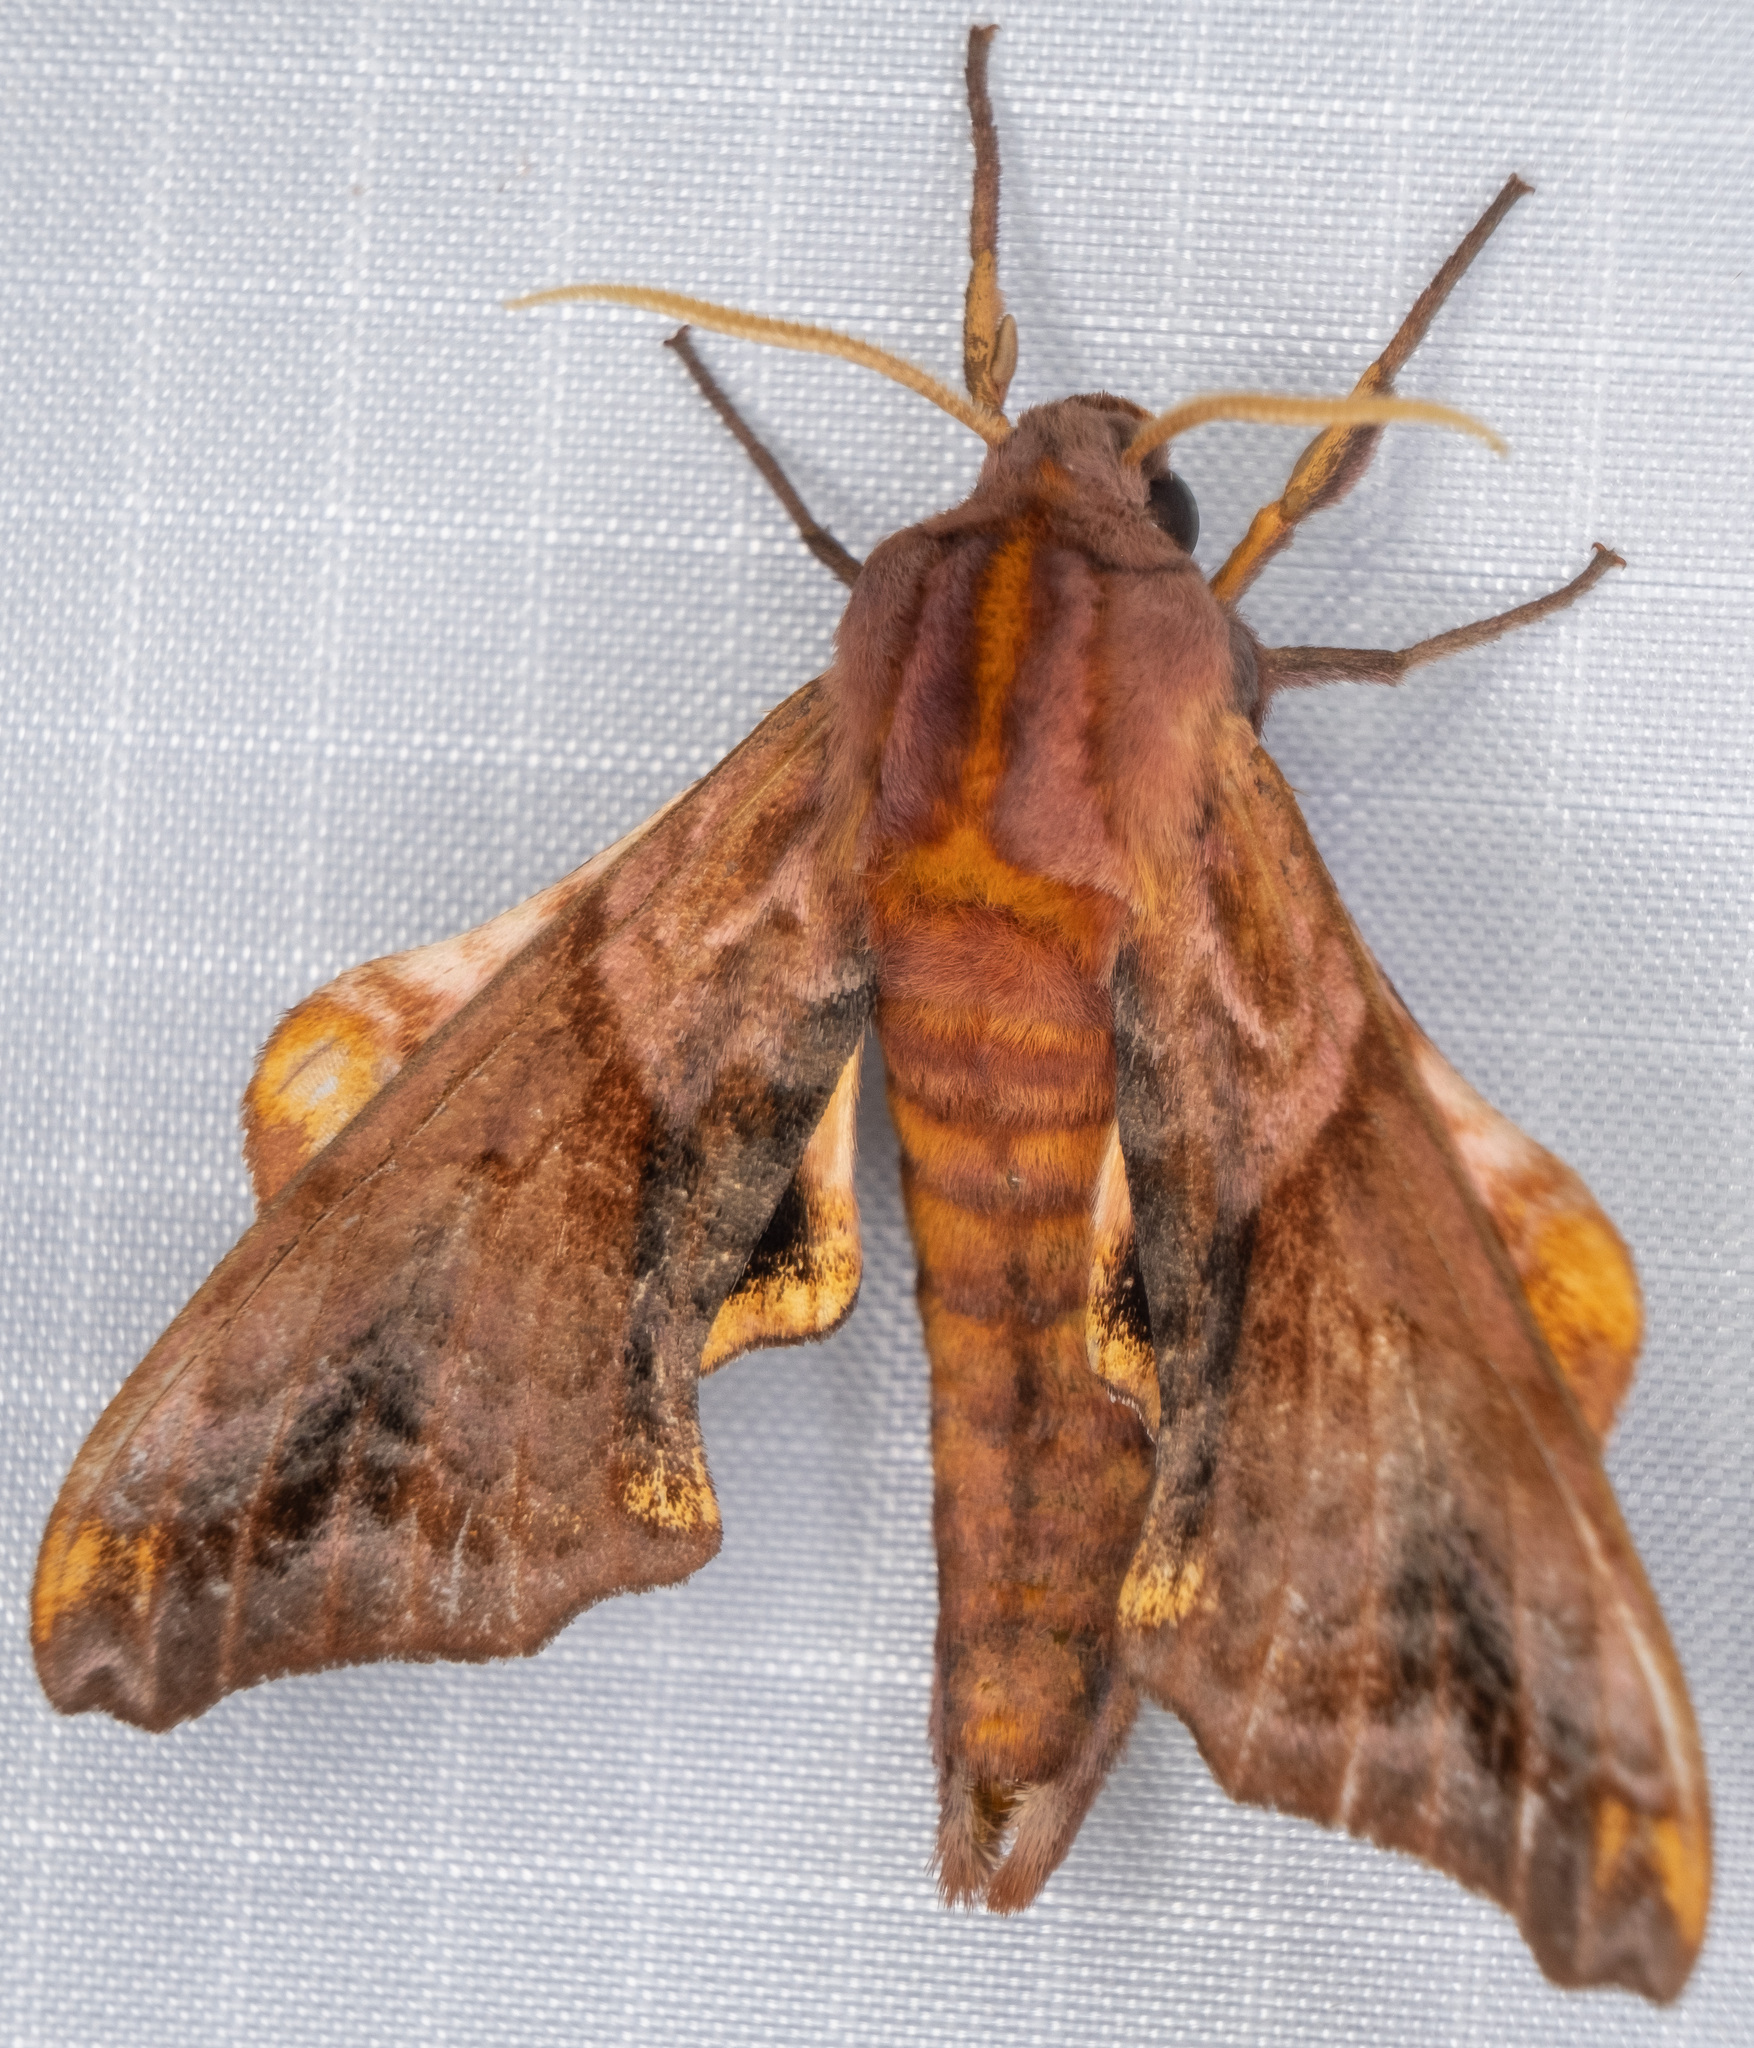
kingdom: Animalia
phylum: Arthropoda
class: Insecta
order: Lepidoptera
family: Sphingidae
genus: Paonias
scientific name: Paonias myops
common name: Small-eyed sphinx
